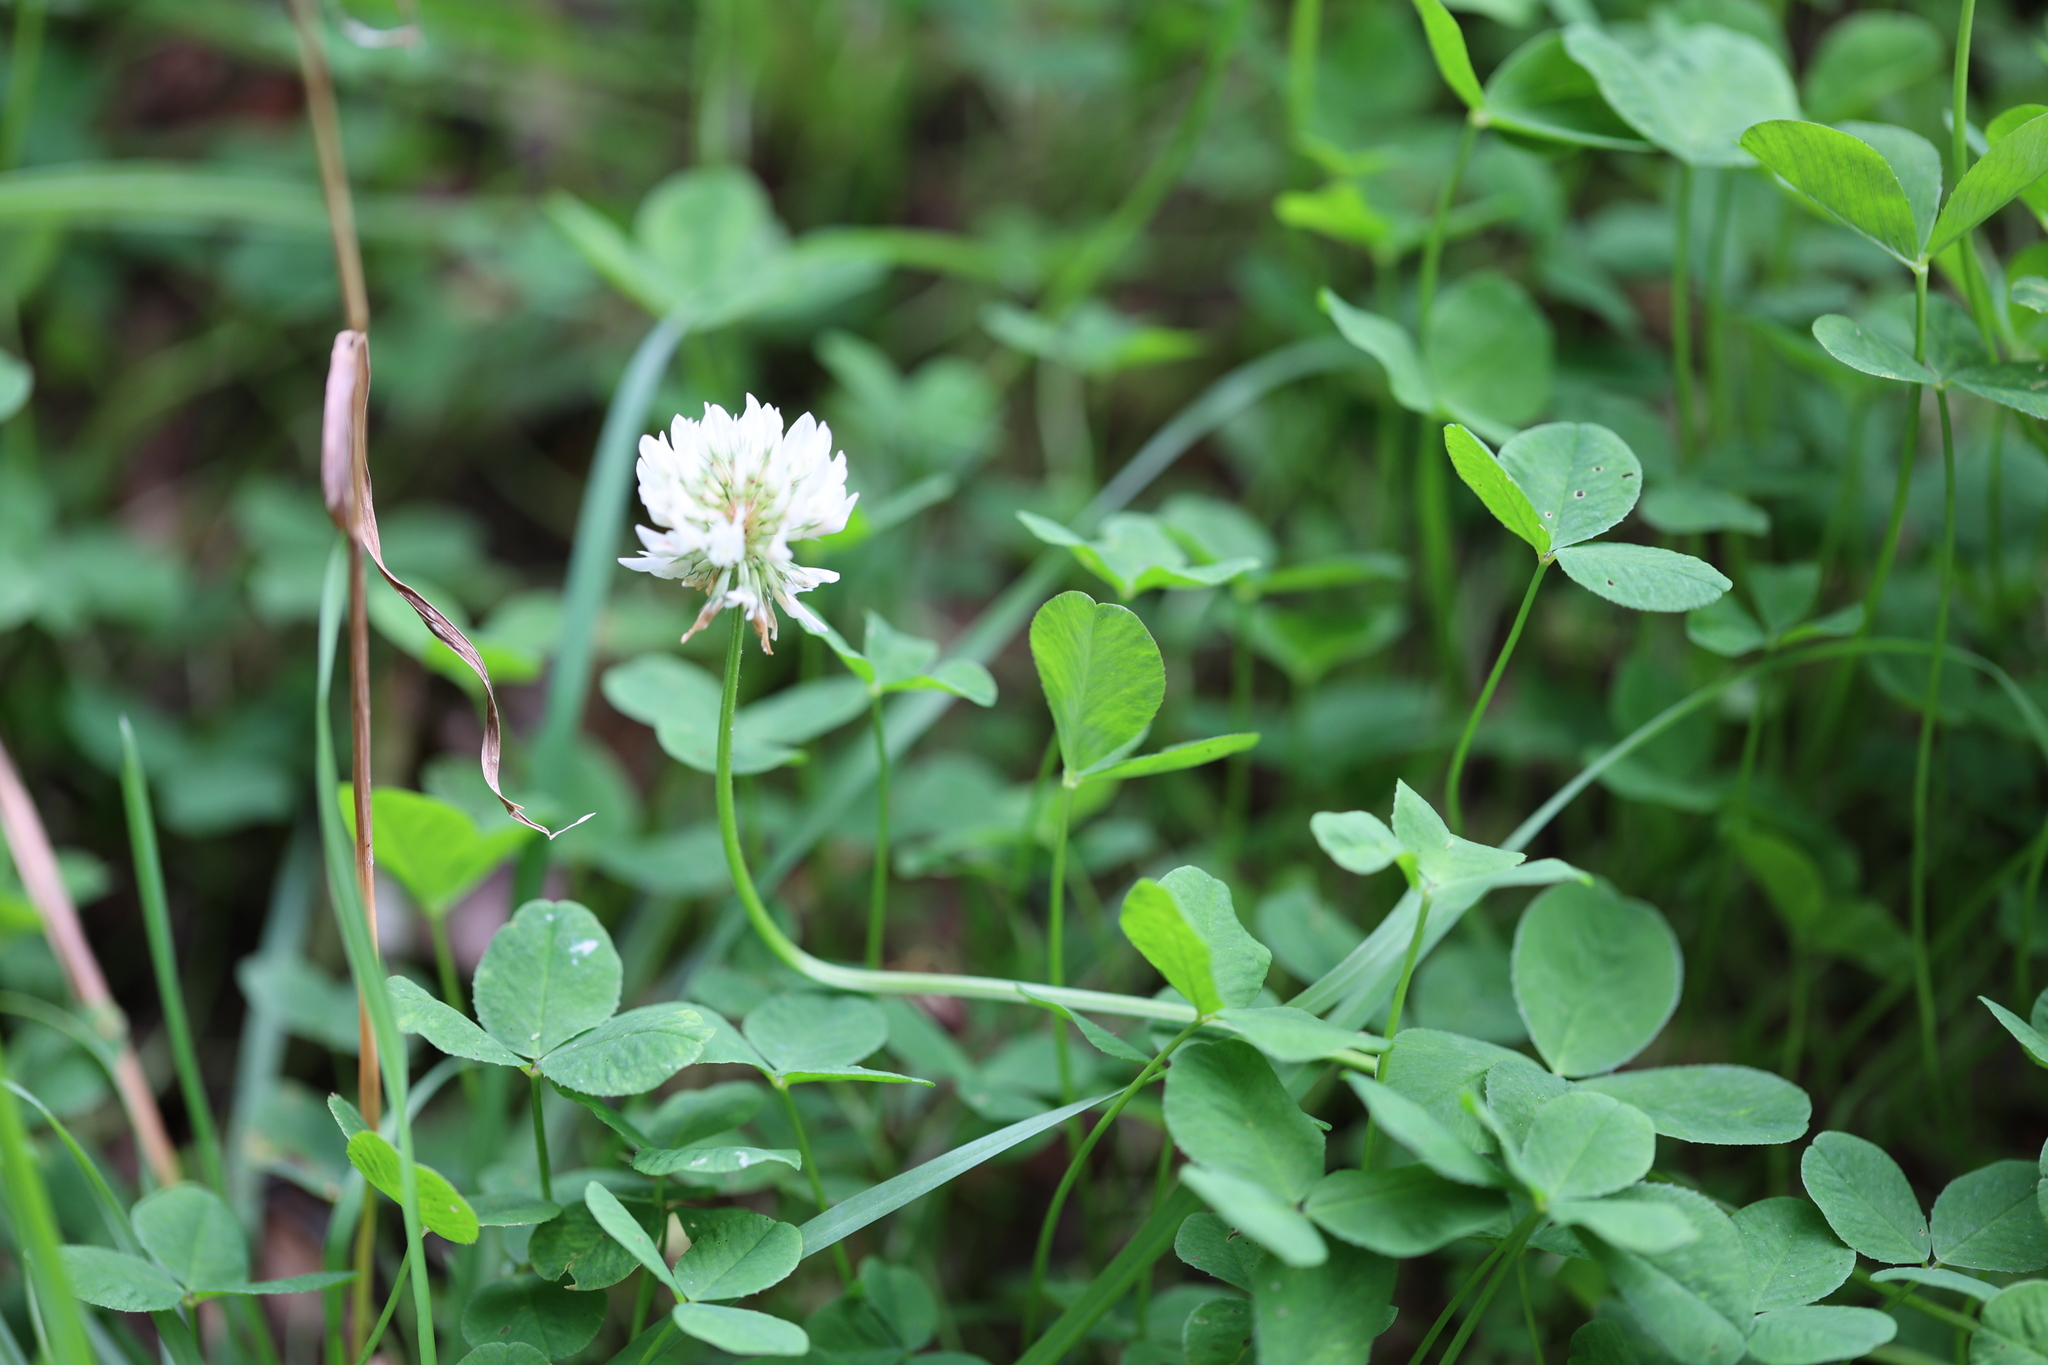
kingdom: Plantae
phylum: Tracheophyta
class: Magnoliopsida
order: Fabales
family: Fabaceae
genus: Trifolium
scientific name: Trifolium repens
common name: White clover
